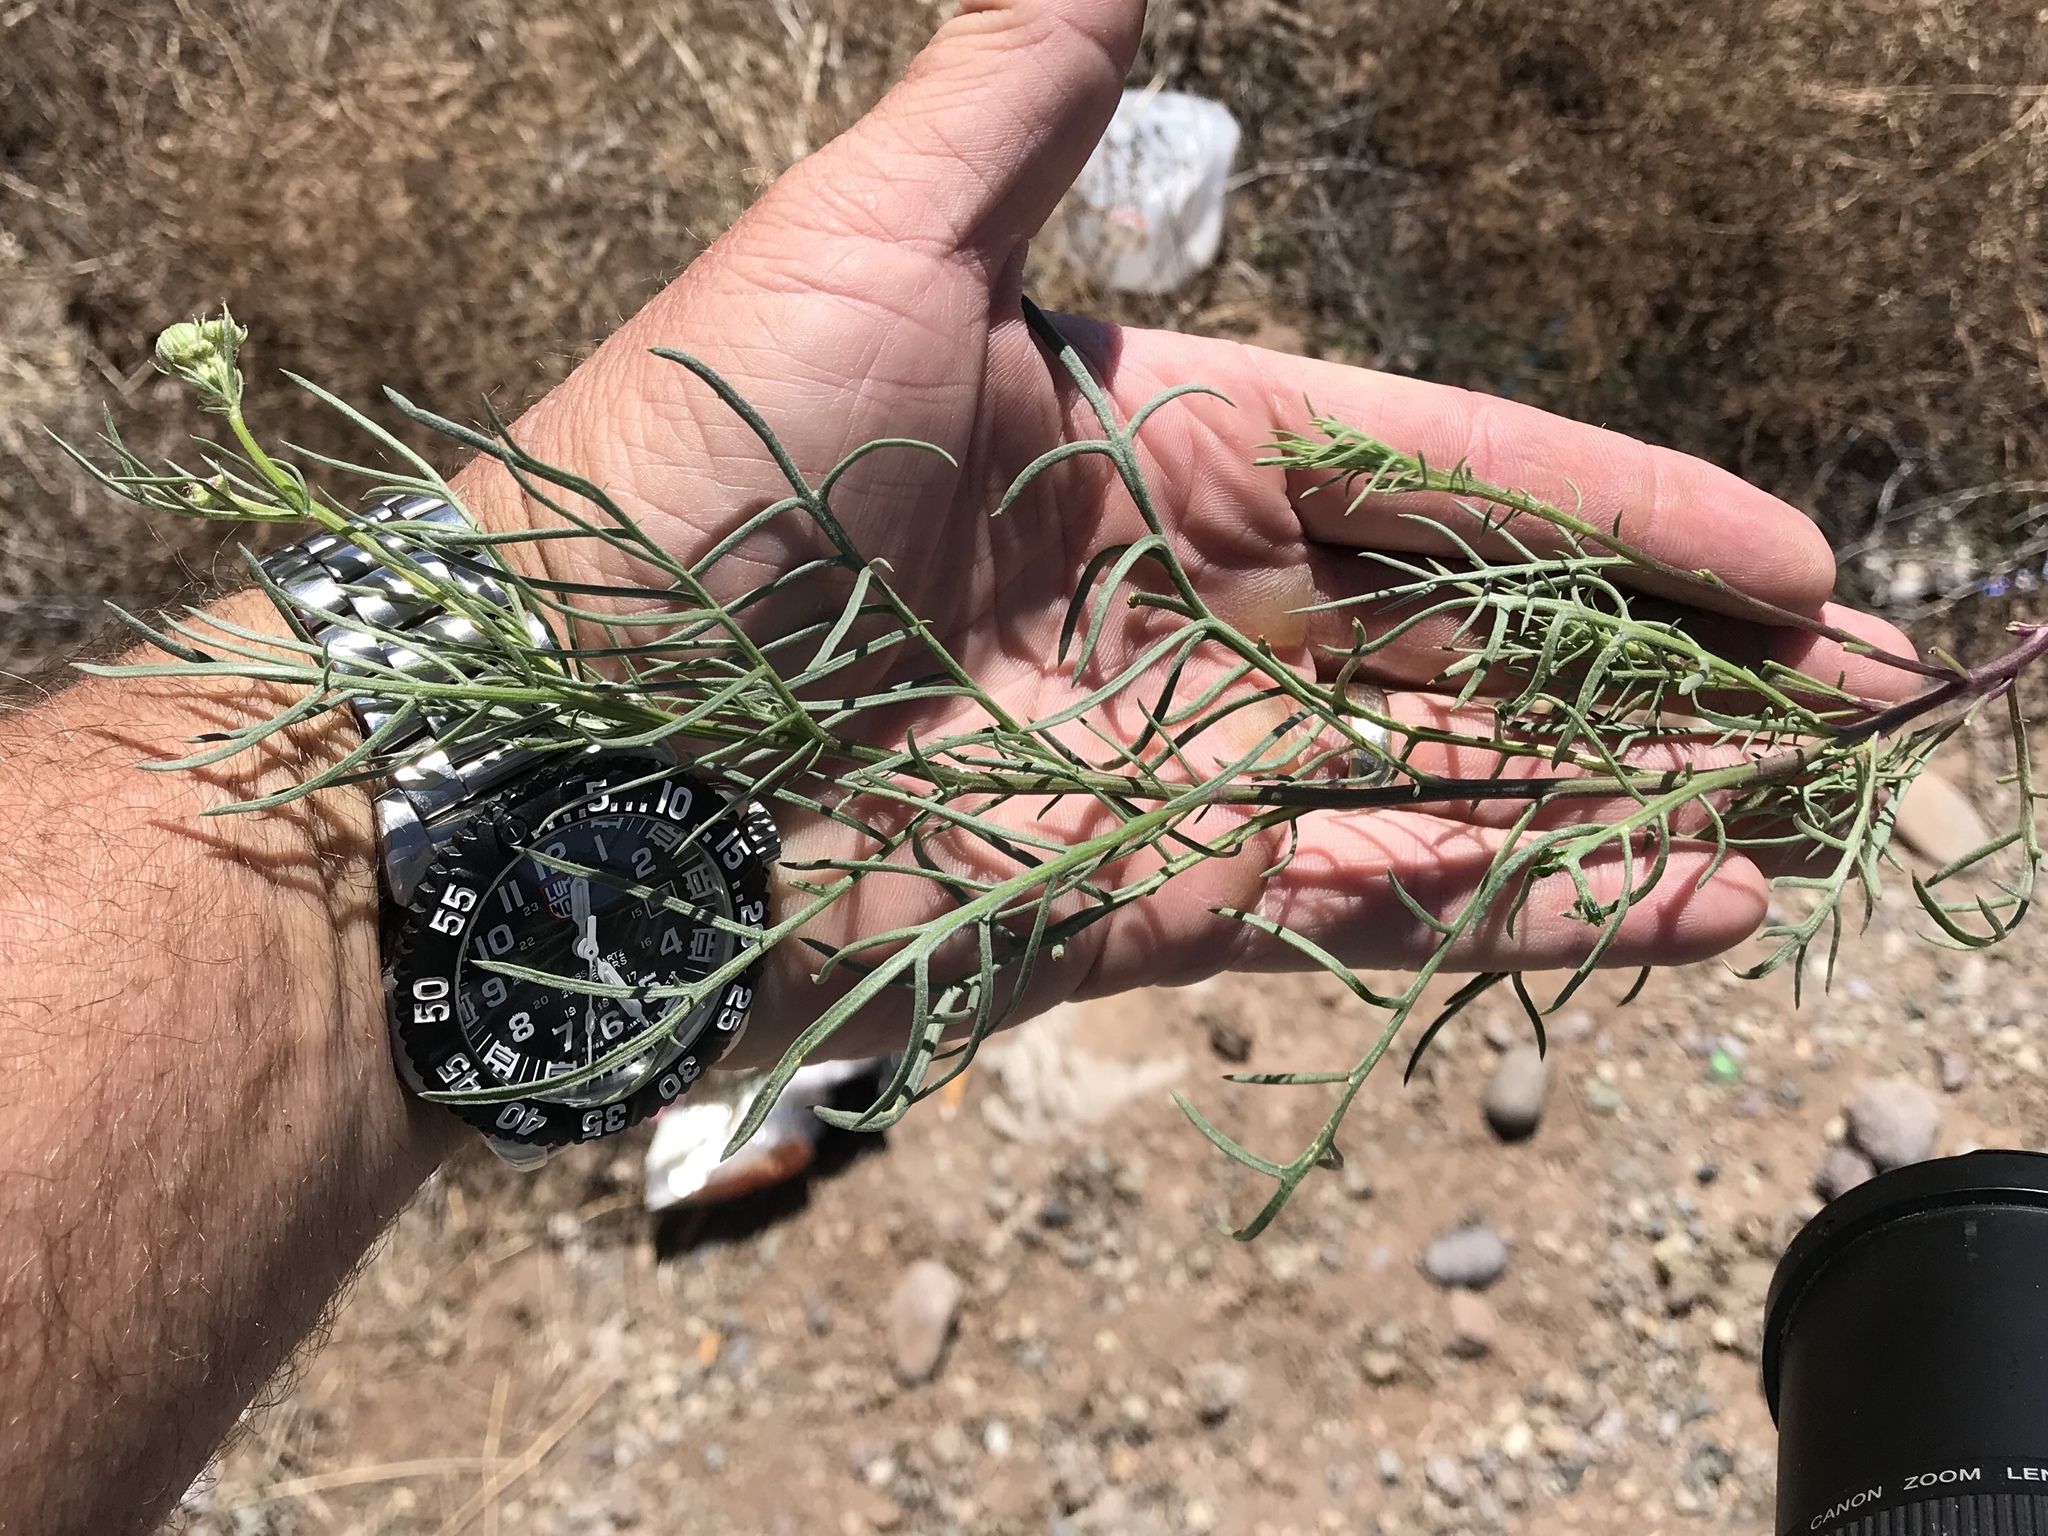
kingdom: Plantae
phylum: Tracheophyta
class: Magnoliopsida
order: Asterales
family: Asteraceae
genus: Senecio
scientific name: Senecio flaccidus
